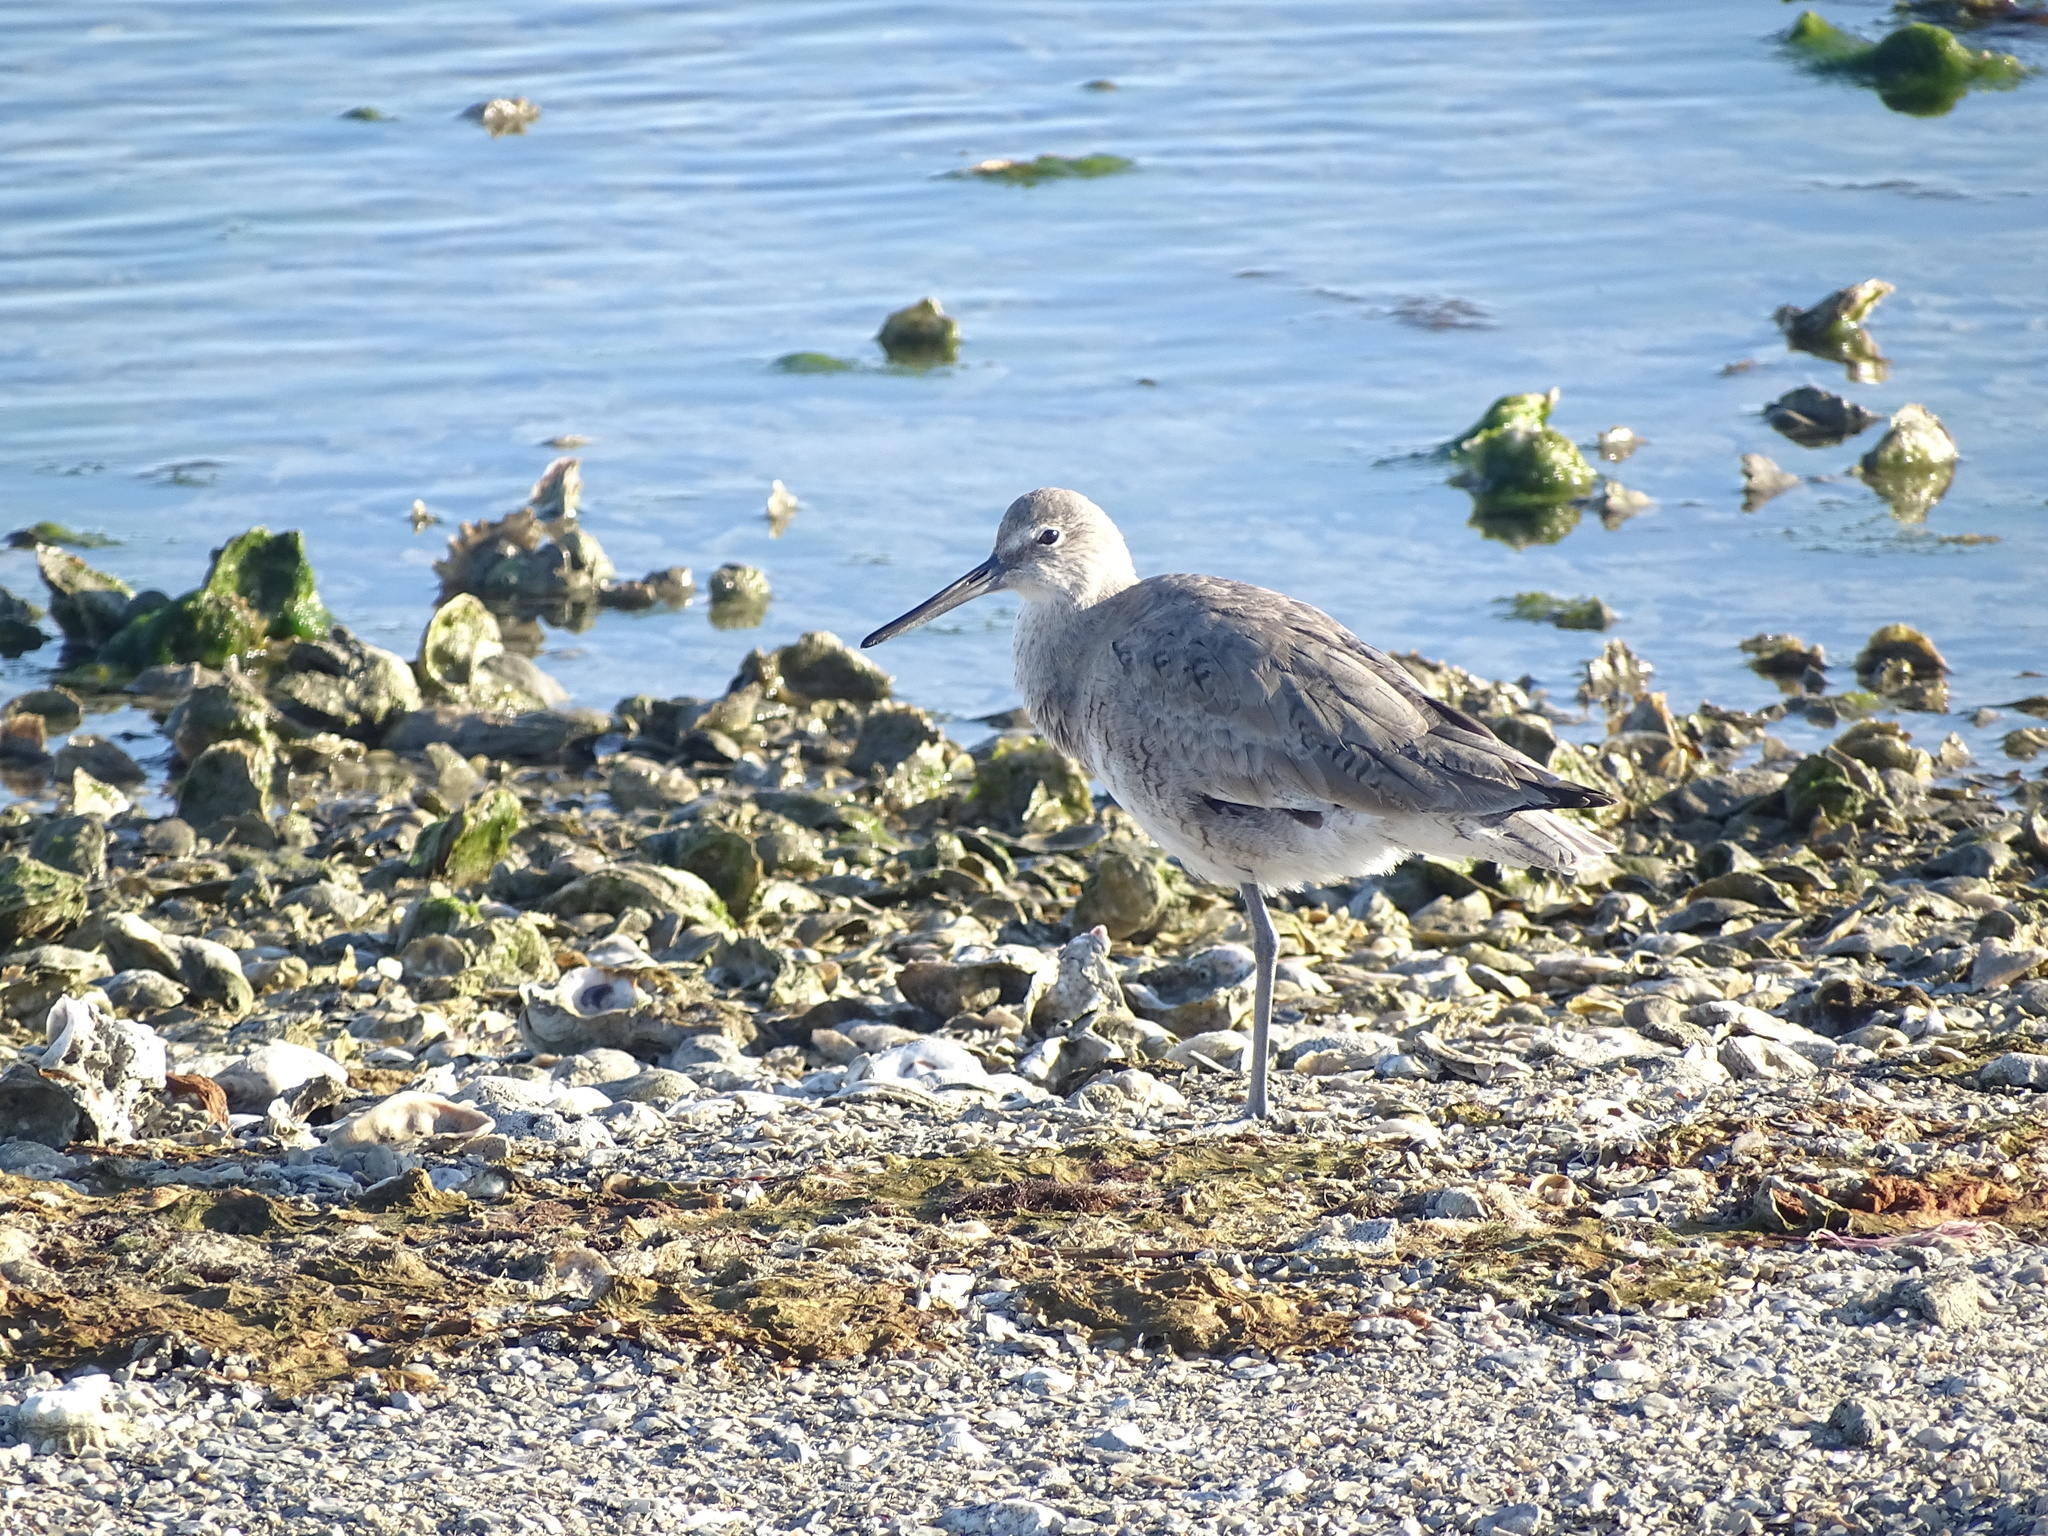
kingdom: Animalia
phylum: Chordata
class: Aves
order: Charadriiformes
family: Scolopacidae
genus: Tringa
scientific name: Tringa semipalmata
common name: Willet
